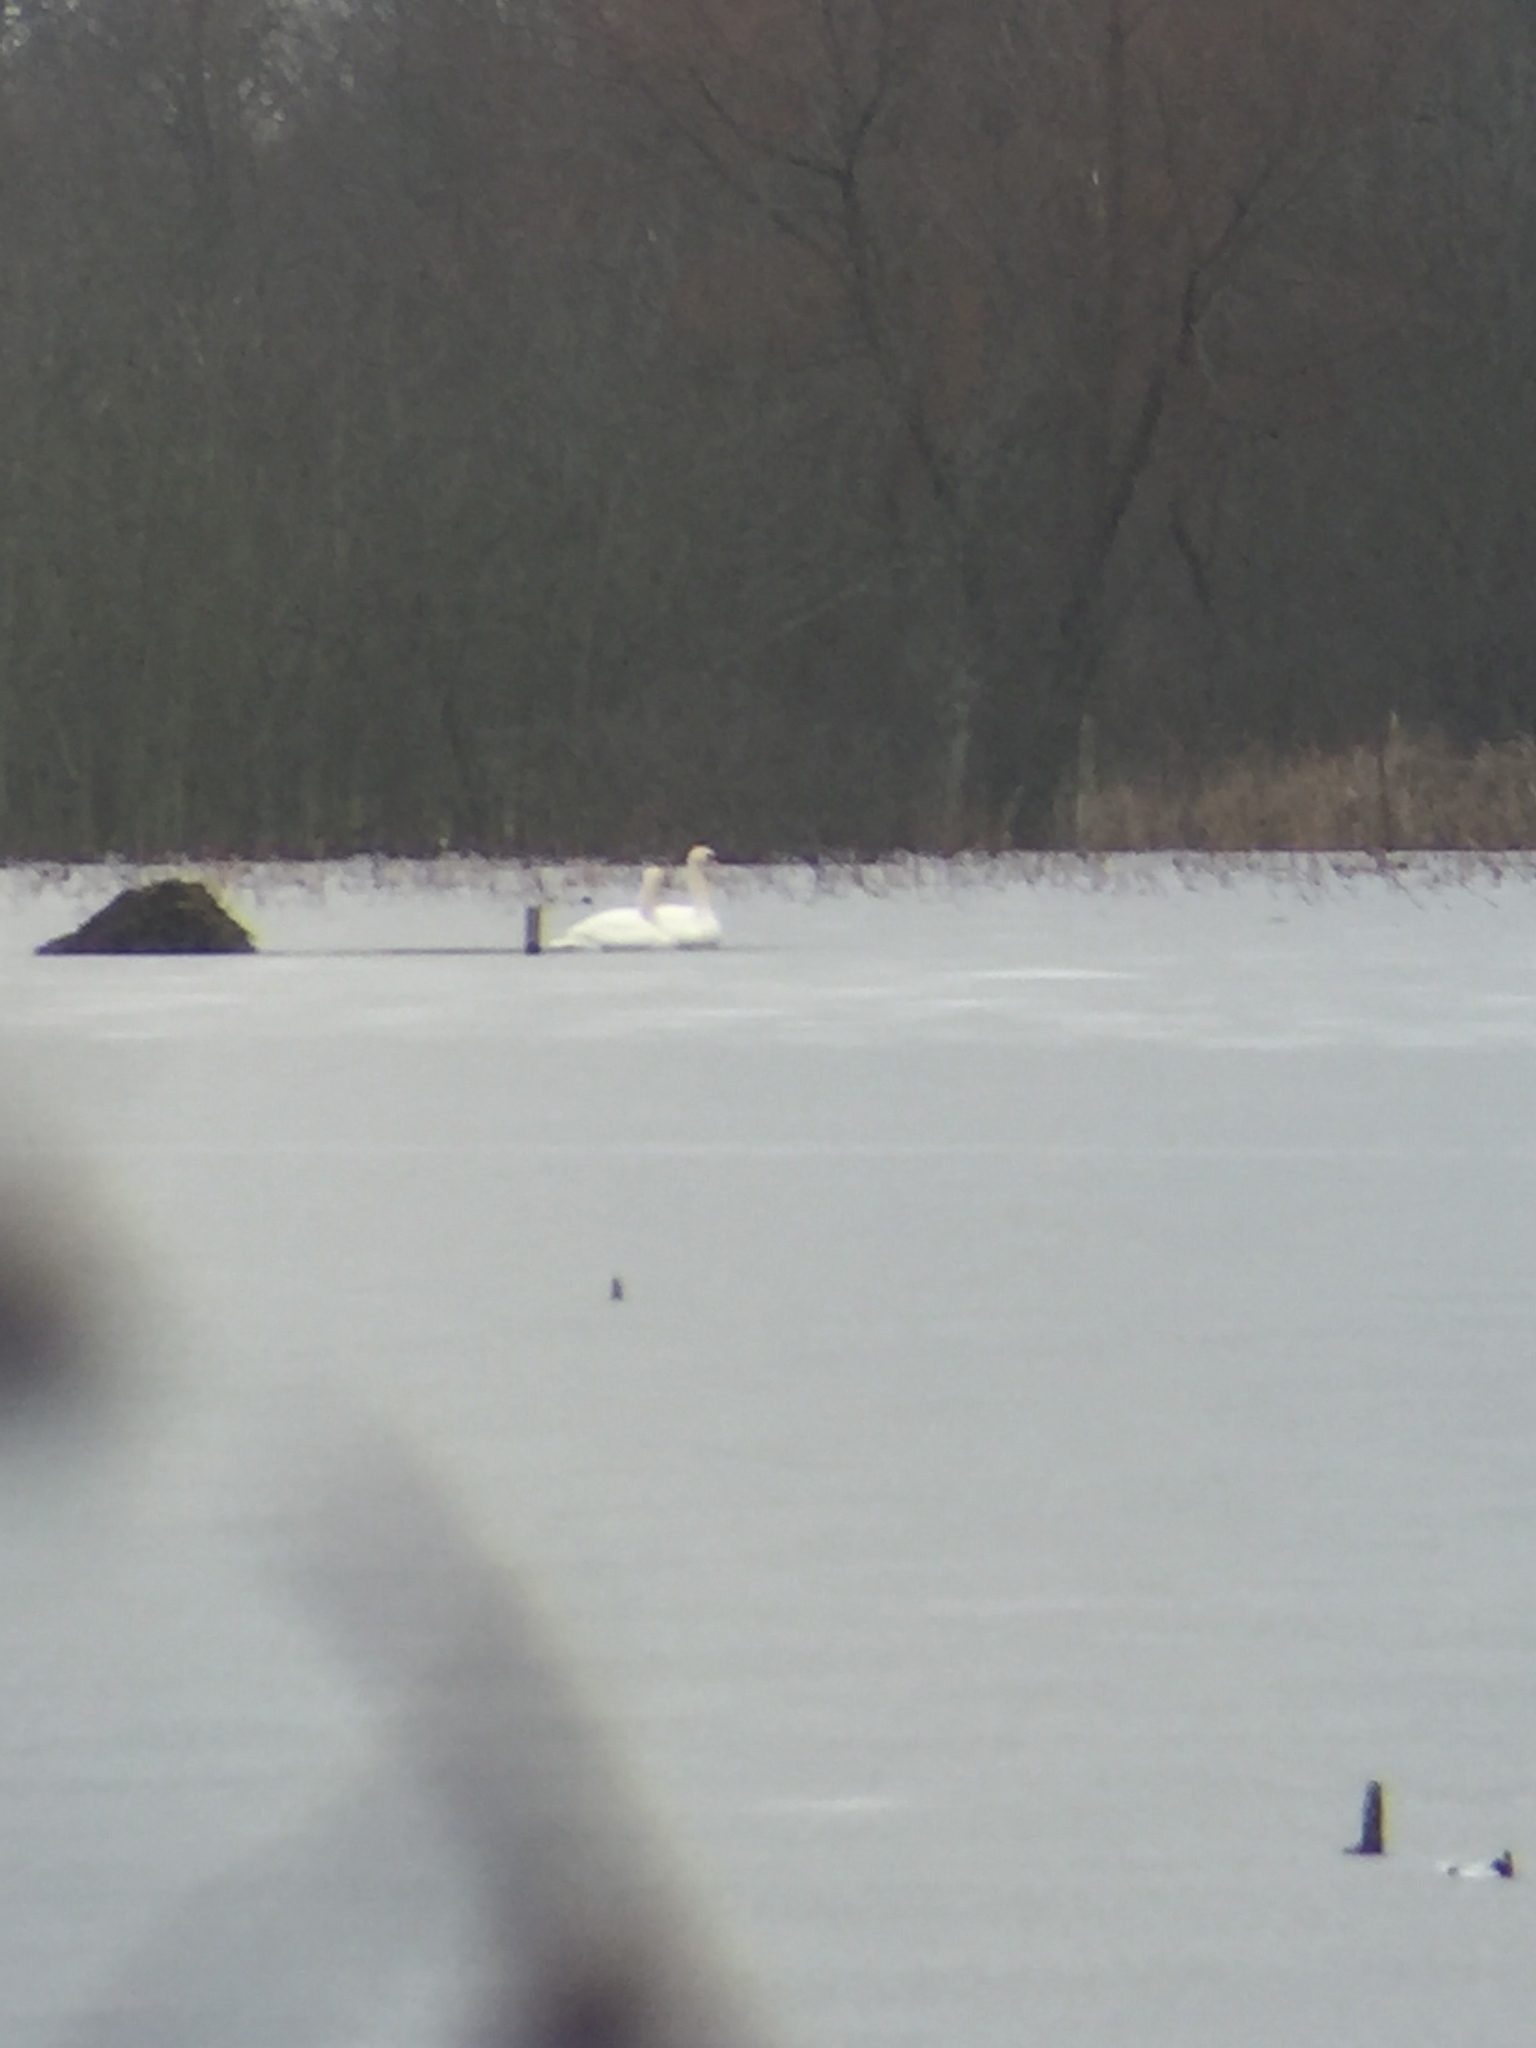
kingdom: Animalia
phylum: Chordata
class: Aves
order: Anseriformes
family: Anatidae
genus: Cygnus
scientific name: Cygnus olor
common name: Mute swan
